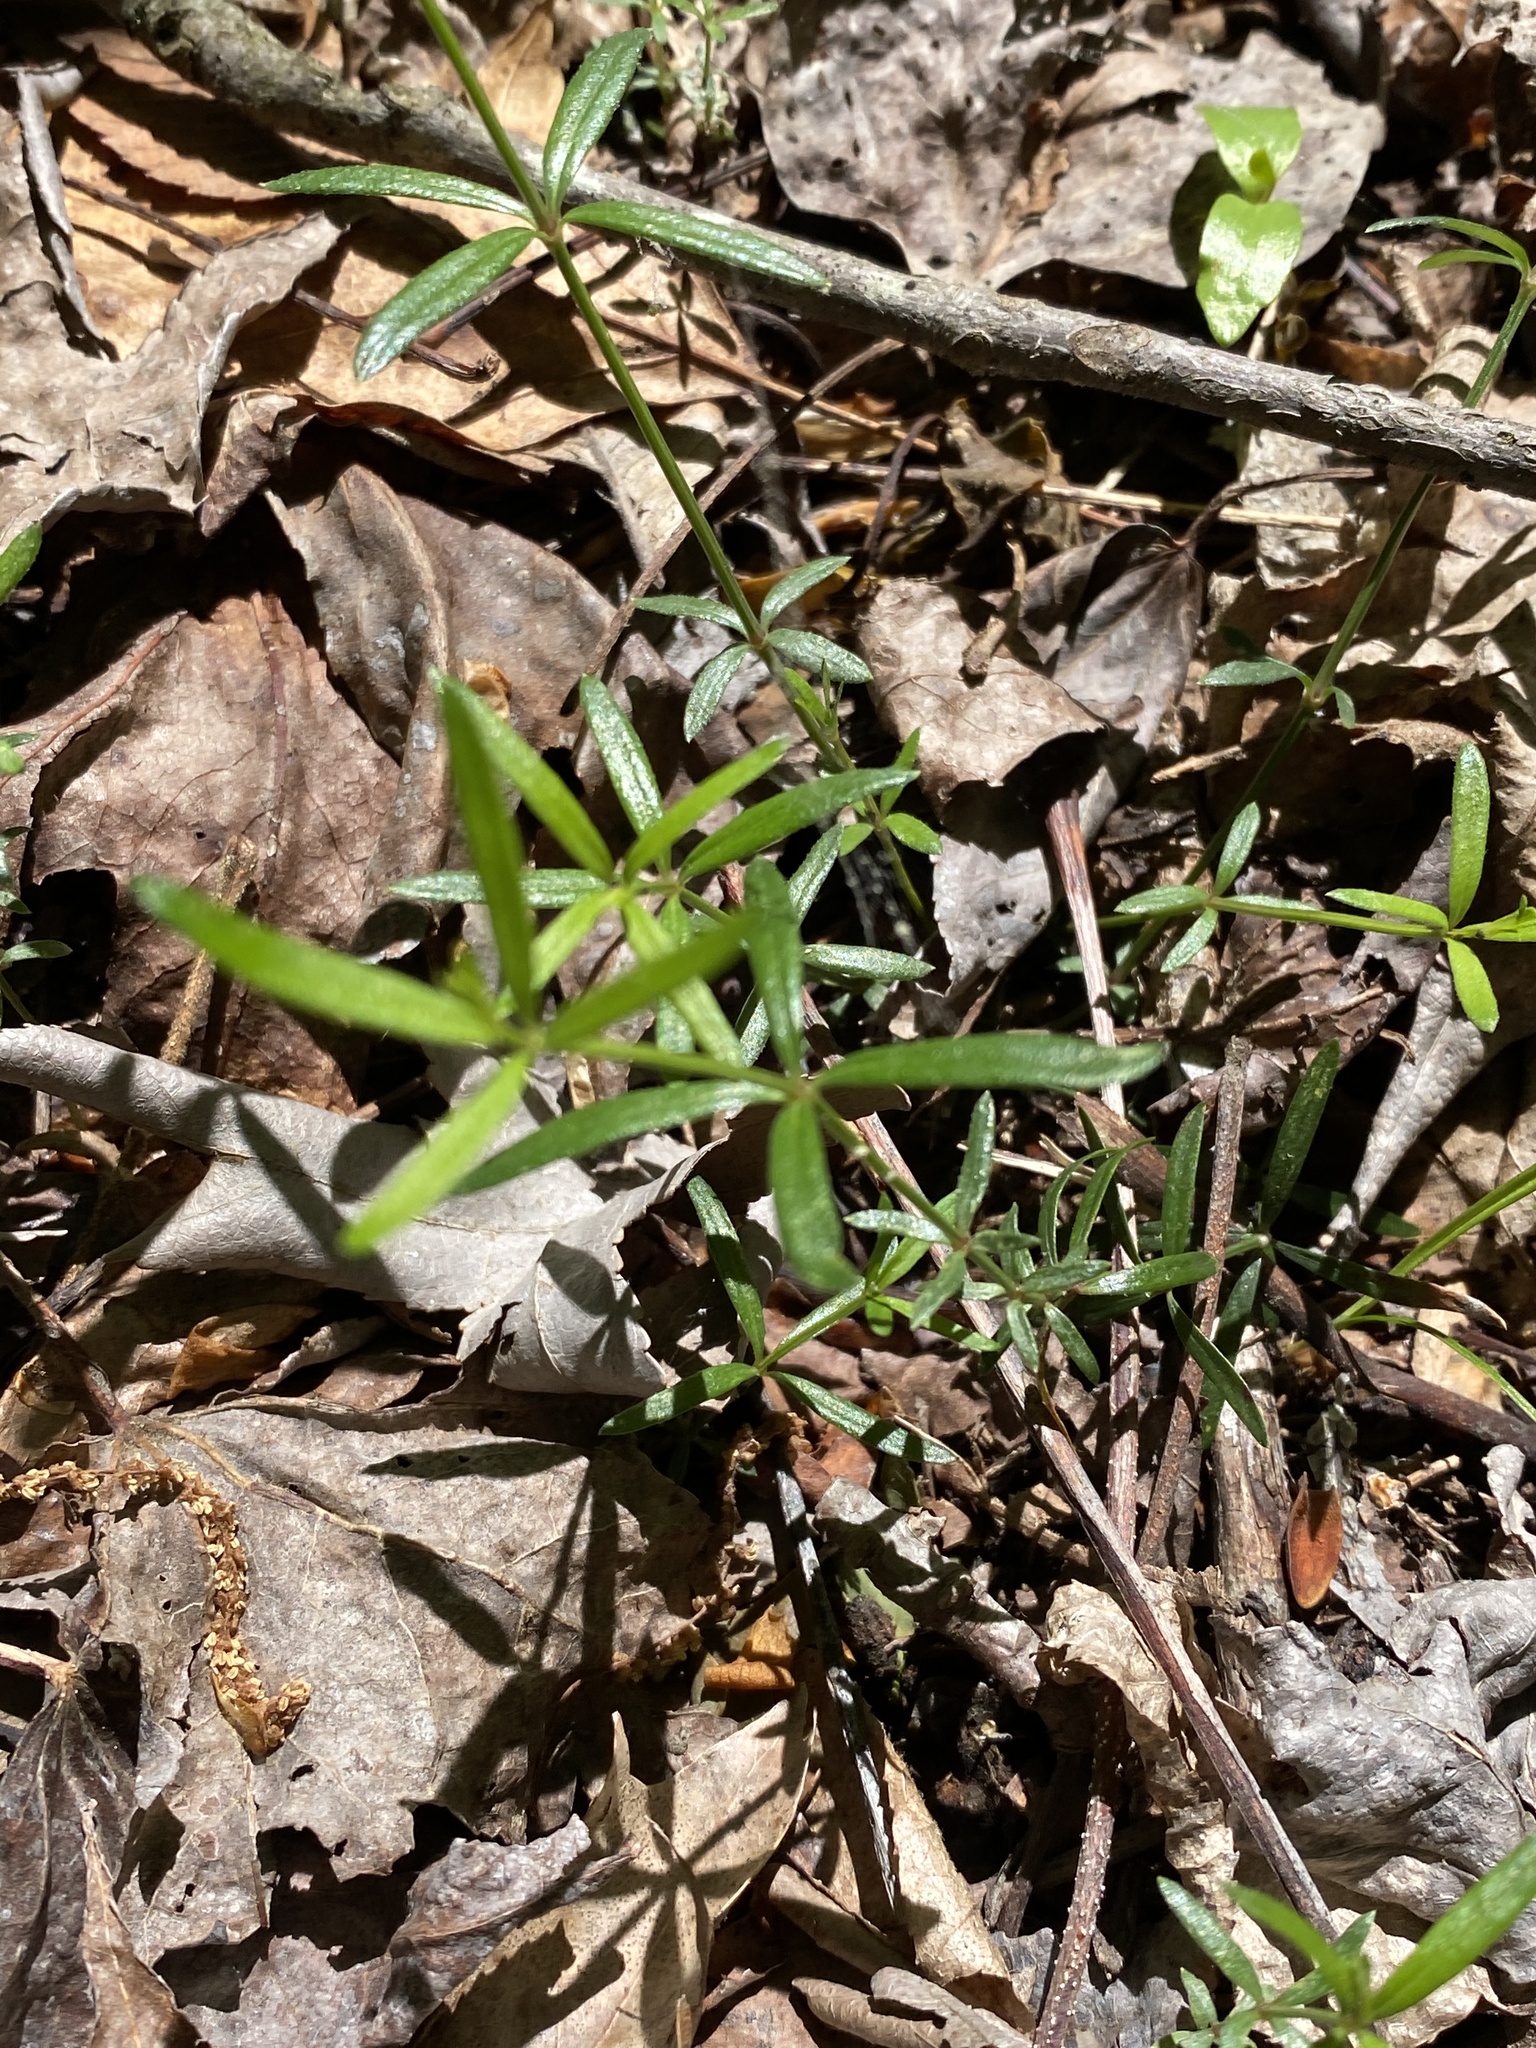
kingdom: Plantae
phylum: Tracheophyta
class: Magnoliopsida
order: Gentianales
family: Rubiaceae
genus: Galium
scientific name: Galium uniflorum
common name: One-flower bedstraw
